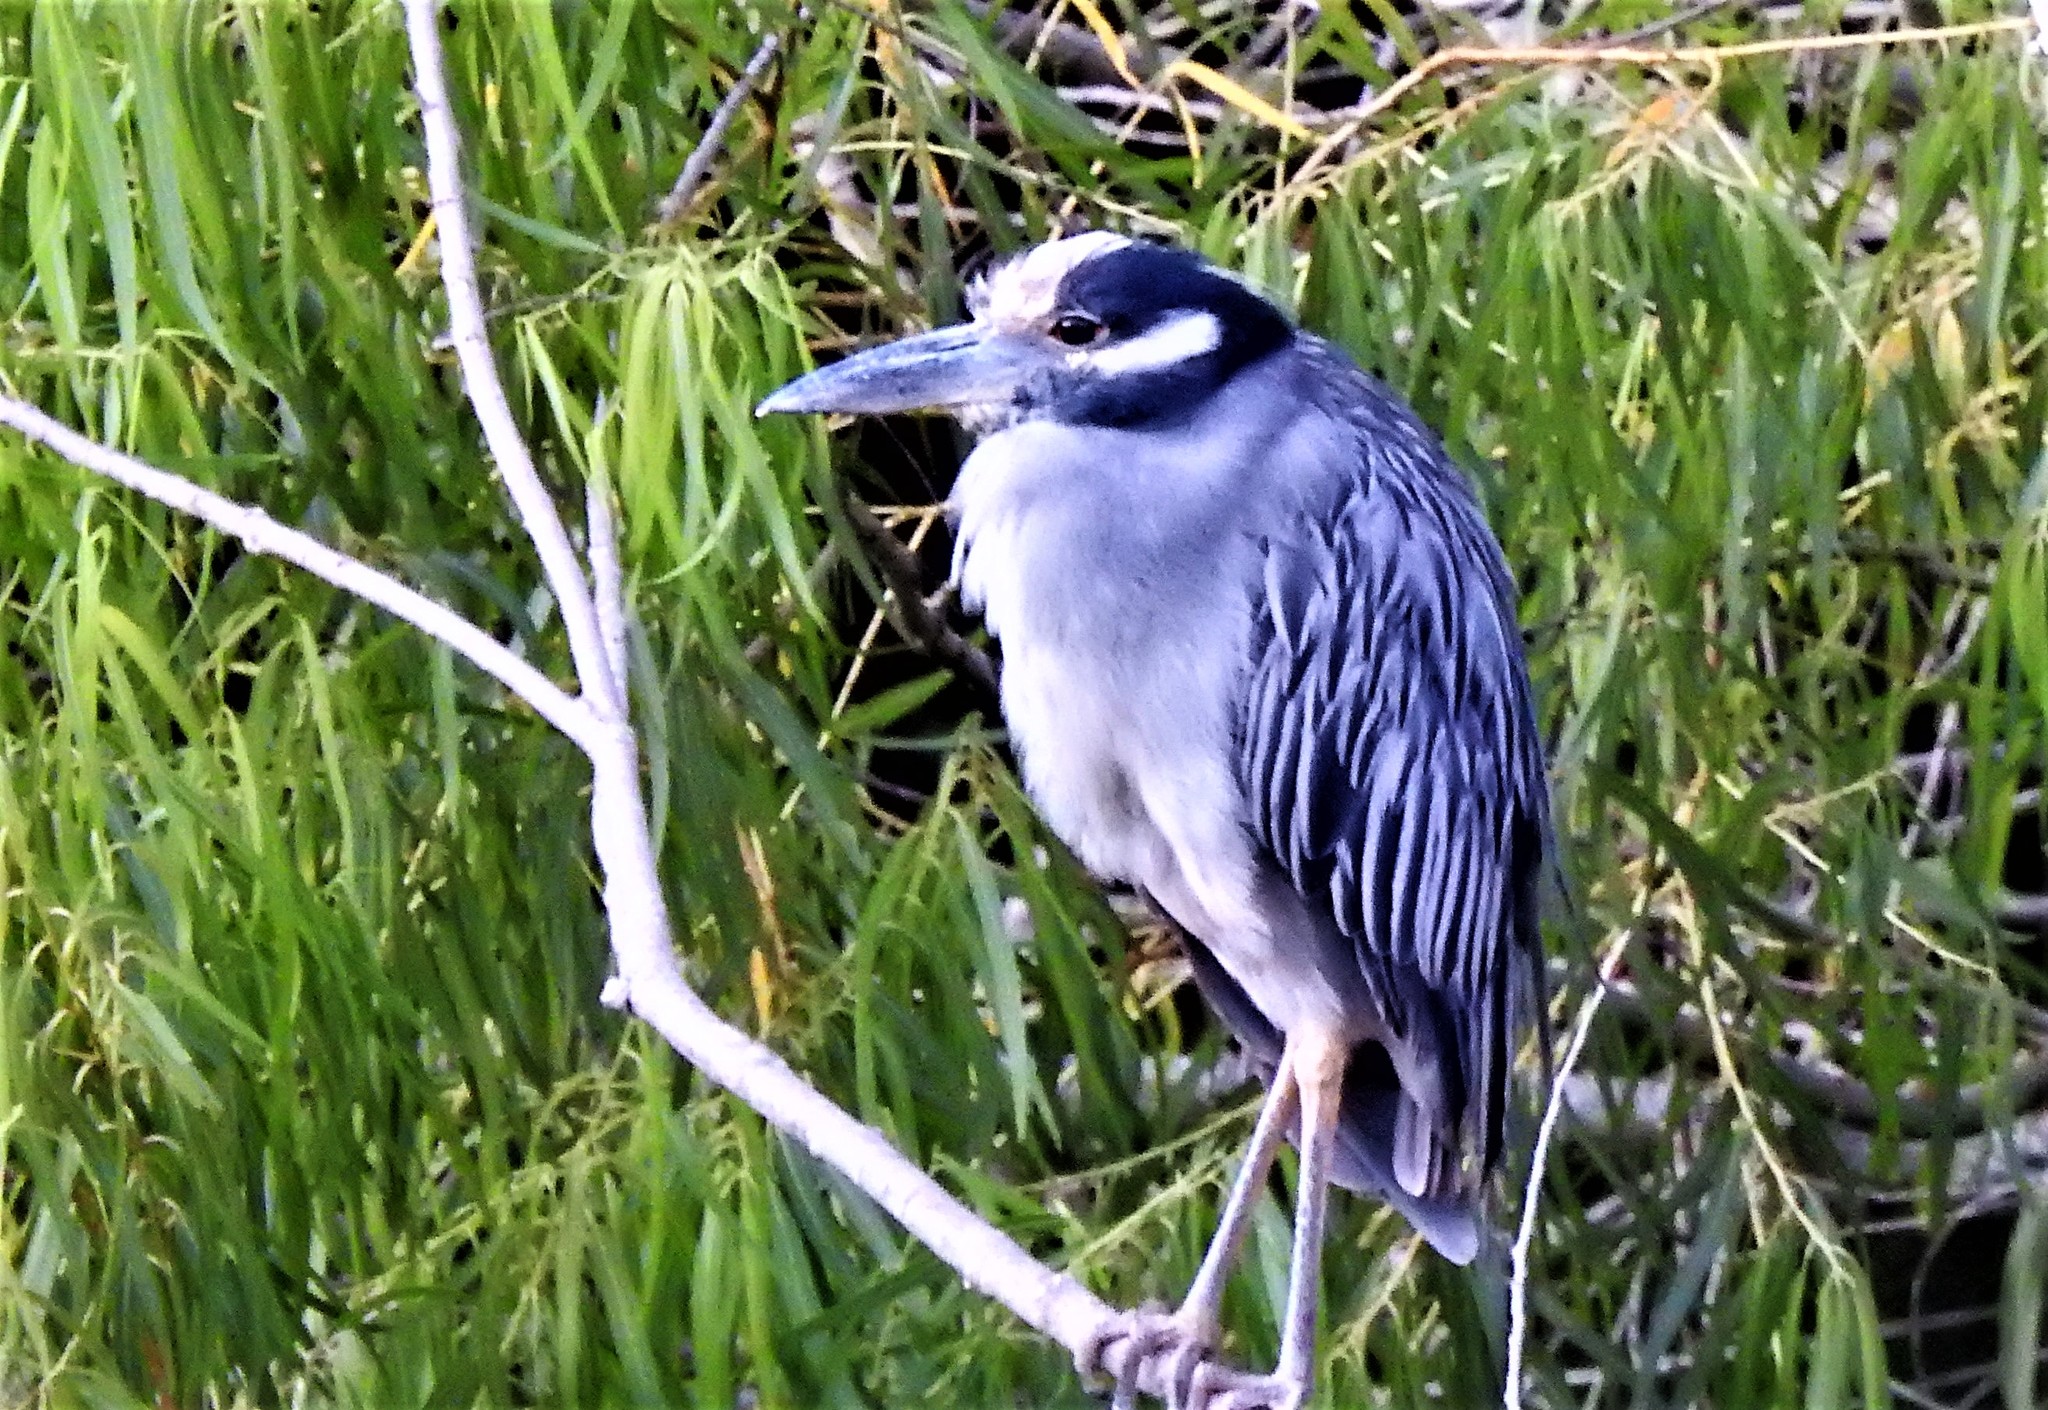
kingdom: Animalia
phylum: Chordata
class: Aves
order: Pelecaniformes
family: Ardeidae
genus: Nyctanassa
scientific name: Nyctanassa violacea
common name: Yellow-crowned night heron
